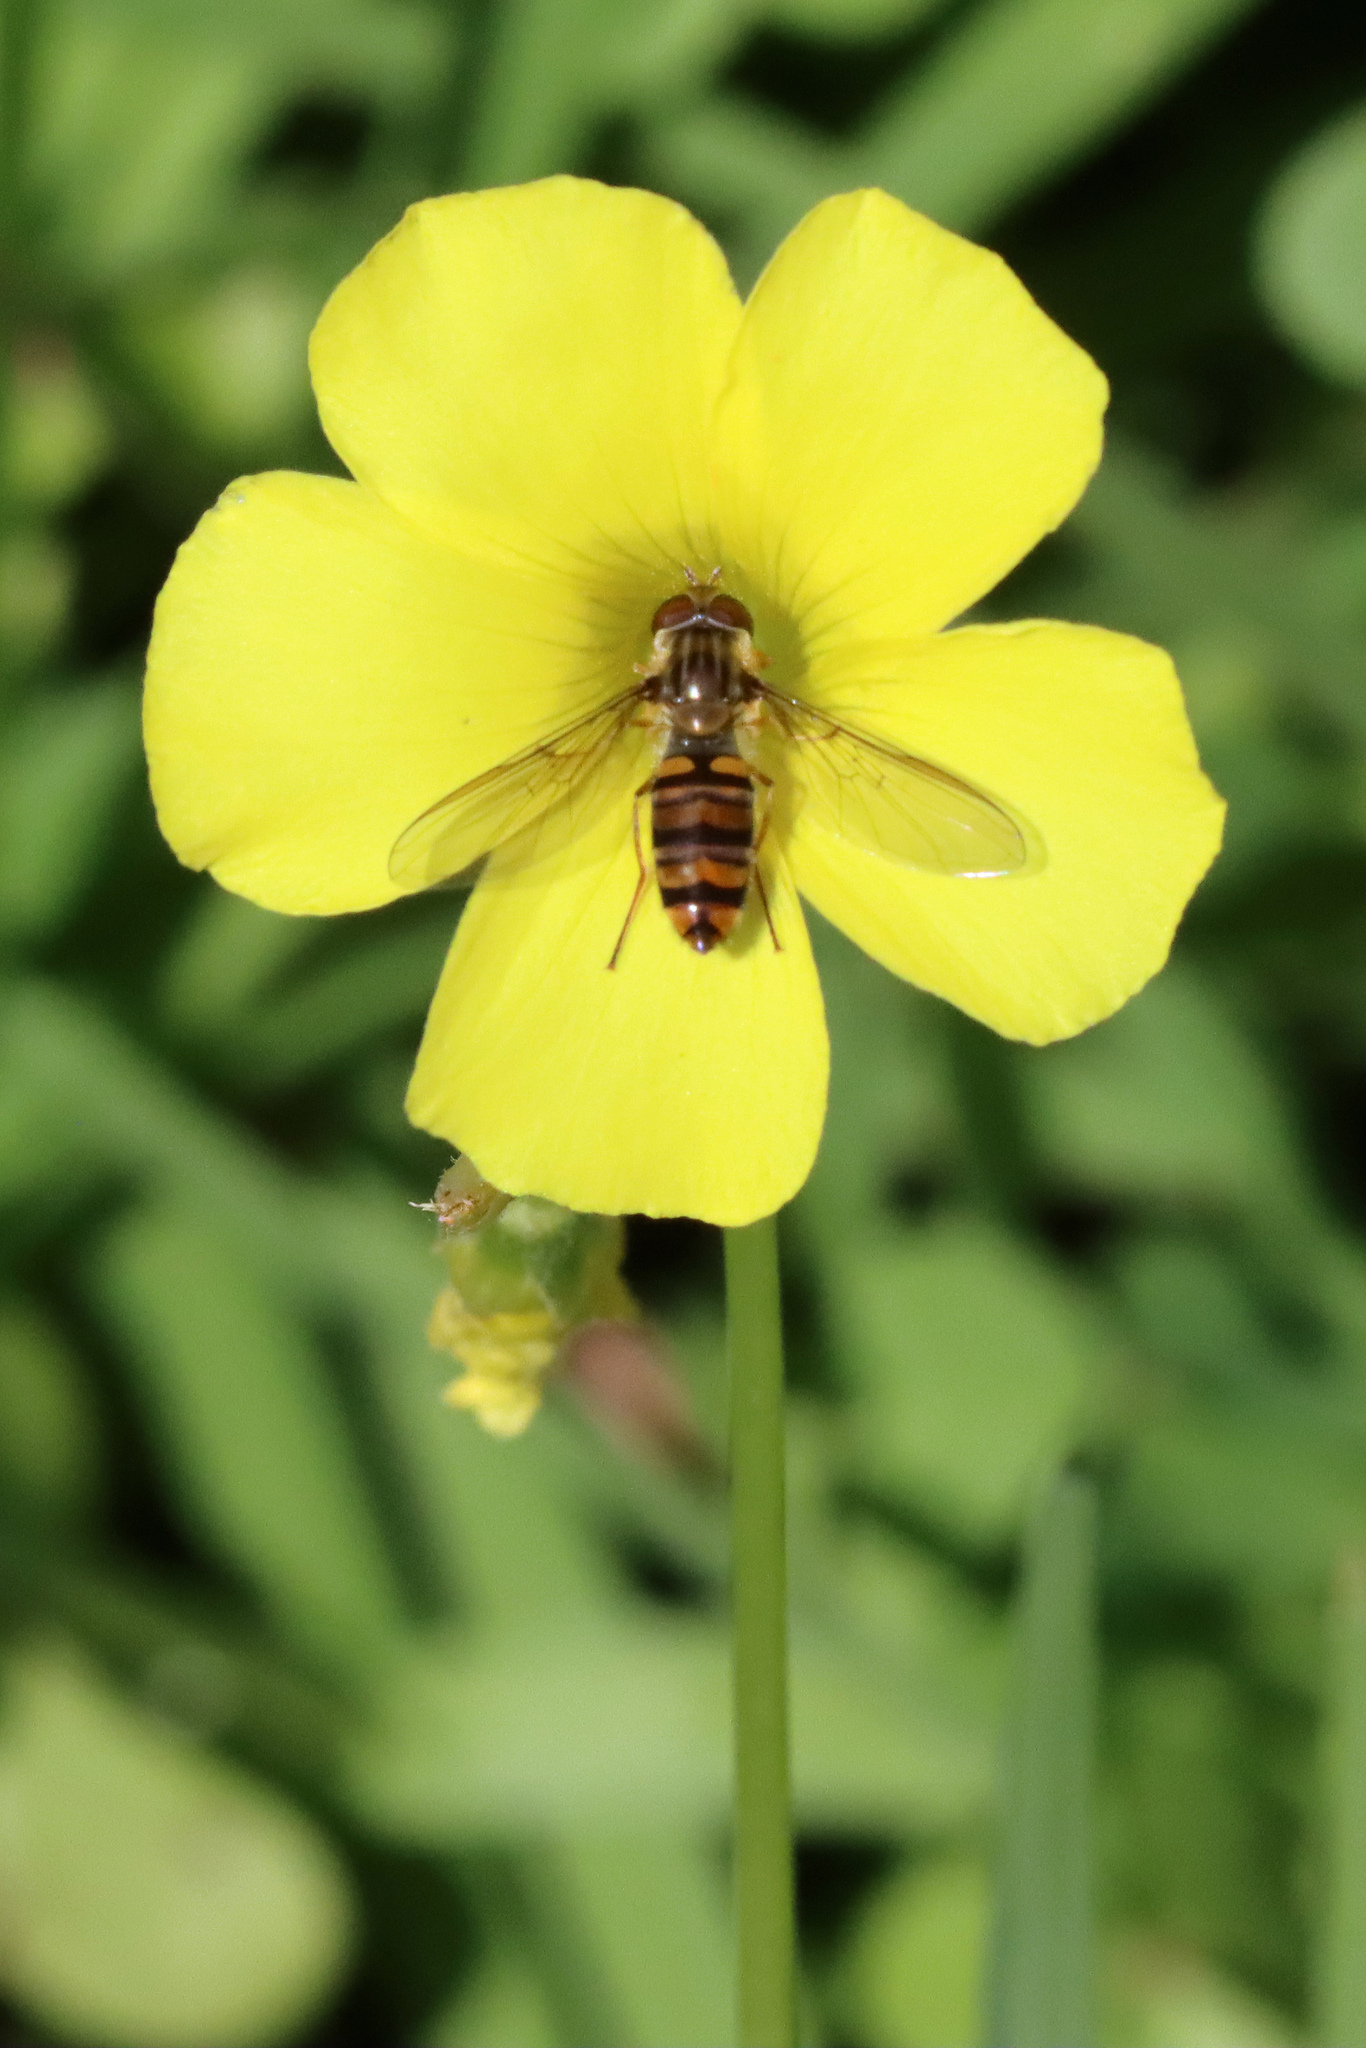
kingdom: Animalia
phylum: Arthropoda
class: Insecta
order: Diptera
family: Syrphidae
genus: Episyrphus
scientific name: Episyrphus balteatus
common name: Marmalade hoverfly
